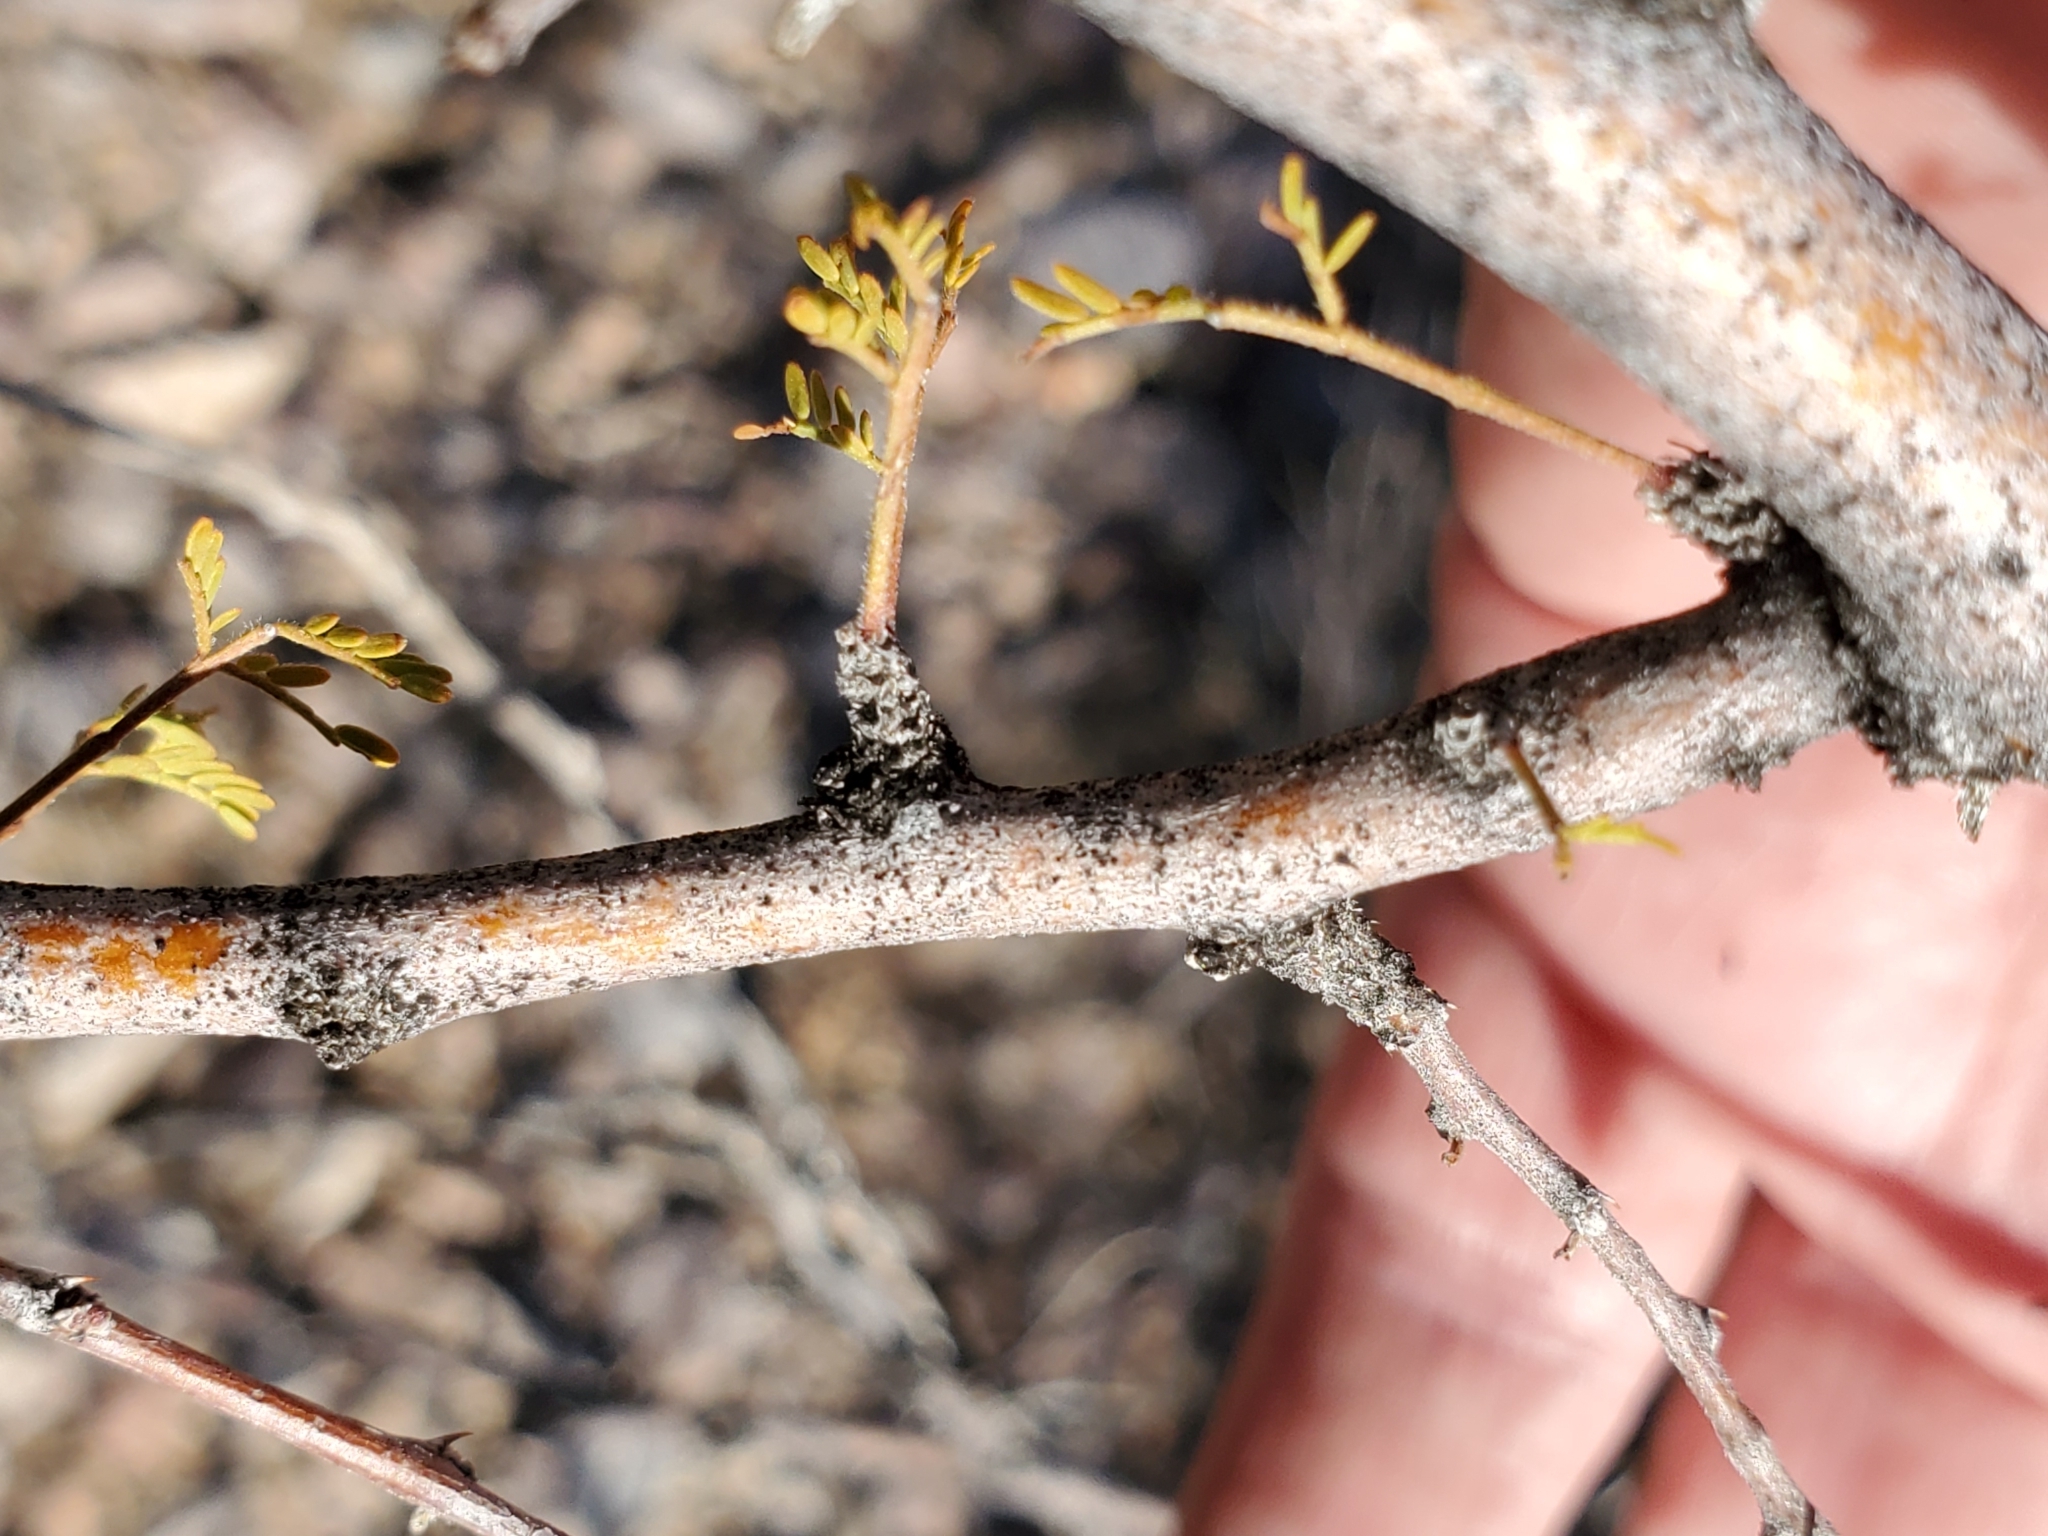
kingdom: Plantae
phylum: Tracheophyta
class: Magnoliopsida
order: Fabales
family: Fabaceae
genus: Vachellia
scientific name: Vachellia constricta
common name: Mescat acacia
